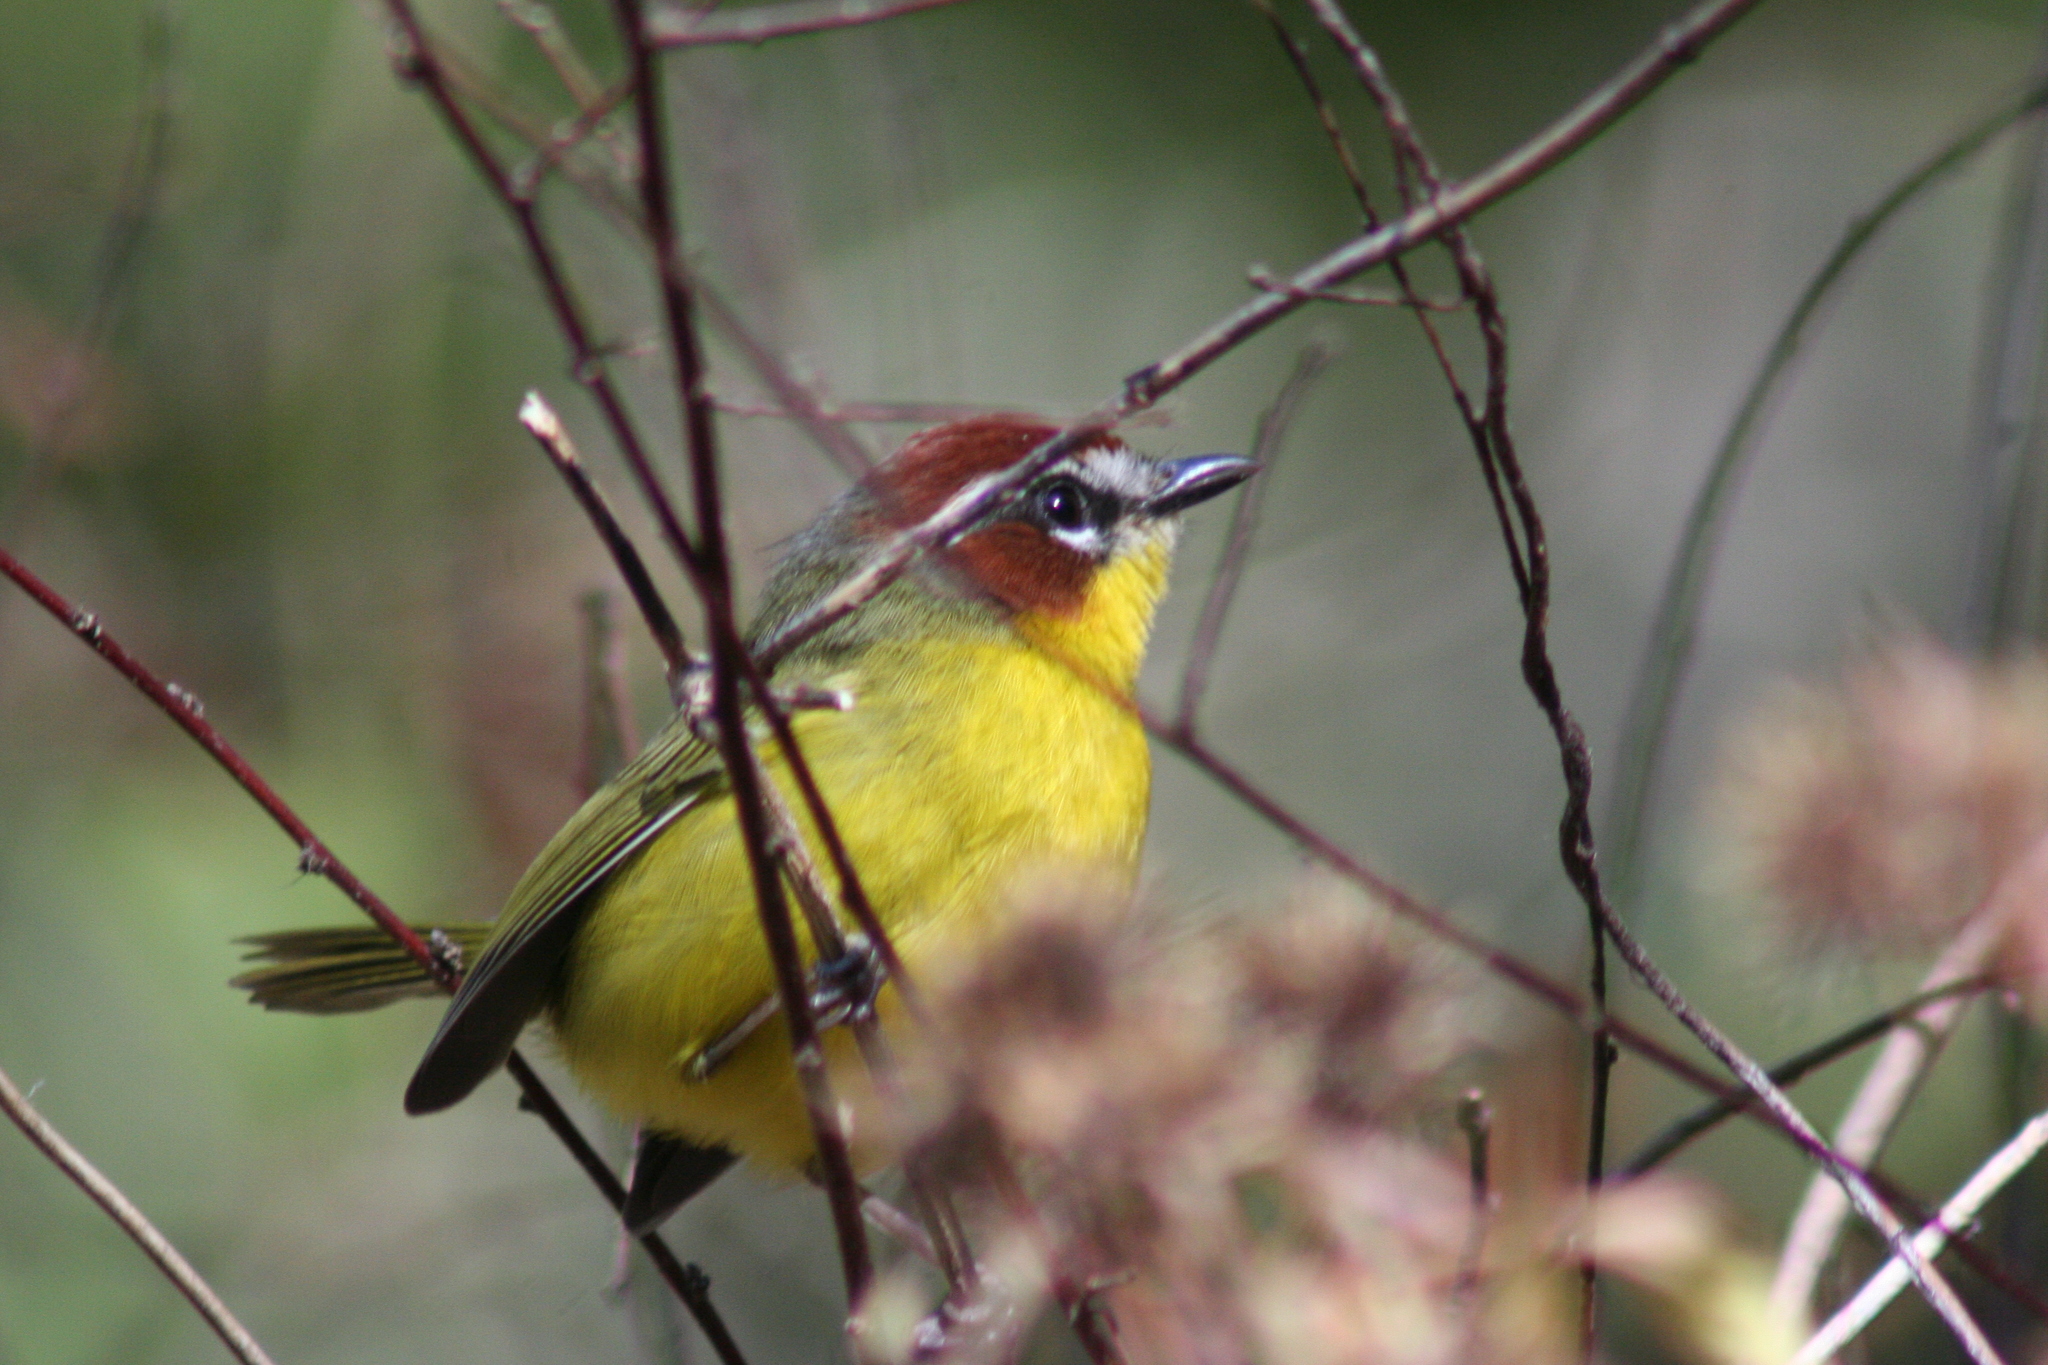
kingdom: Animalia
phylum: Chordata
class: Aves
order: Passeriformes
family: Parulidae
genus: Basileuterus
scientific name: Basileuterus rufifrons
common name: Rufous-capped warbler
